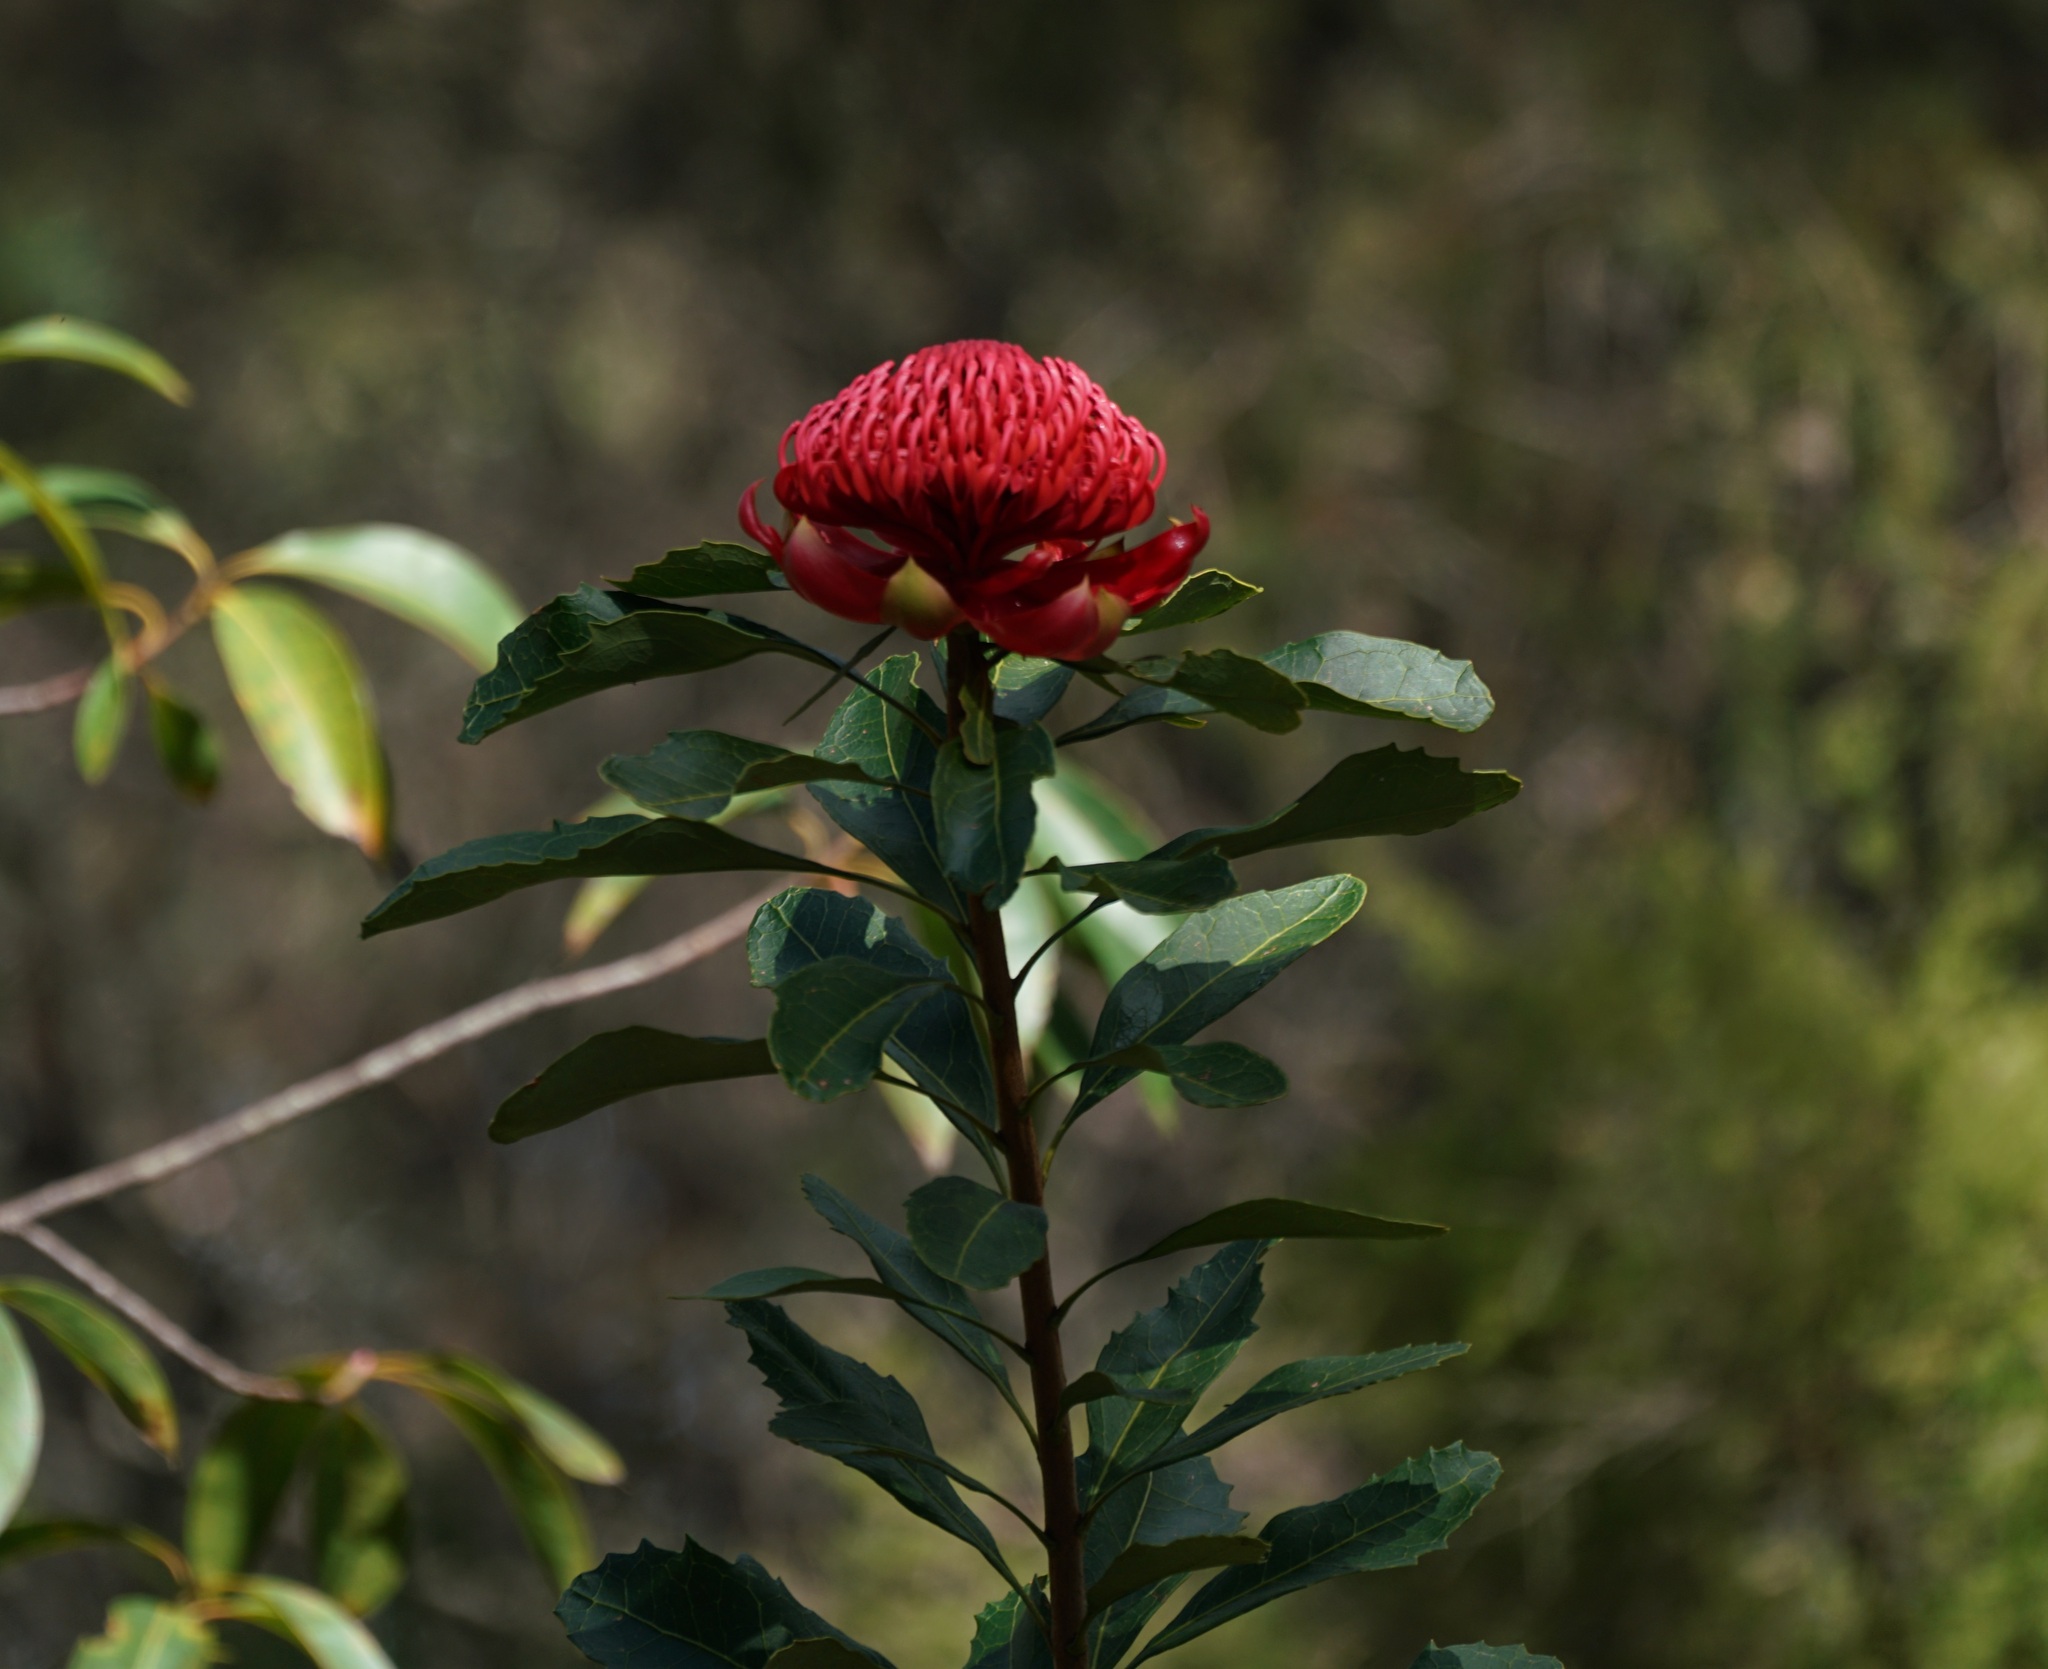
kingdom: Plantae
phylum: Tracheophyta
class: Magnoliopsida
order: Proteales
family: Proteaceae
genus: Telopea
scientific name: Telopea speciosissima
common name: New south wales waratah
